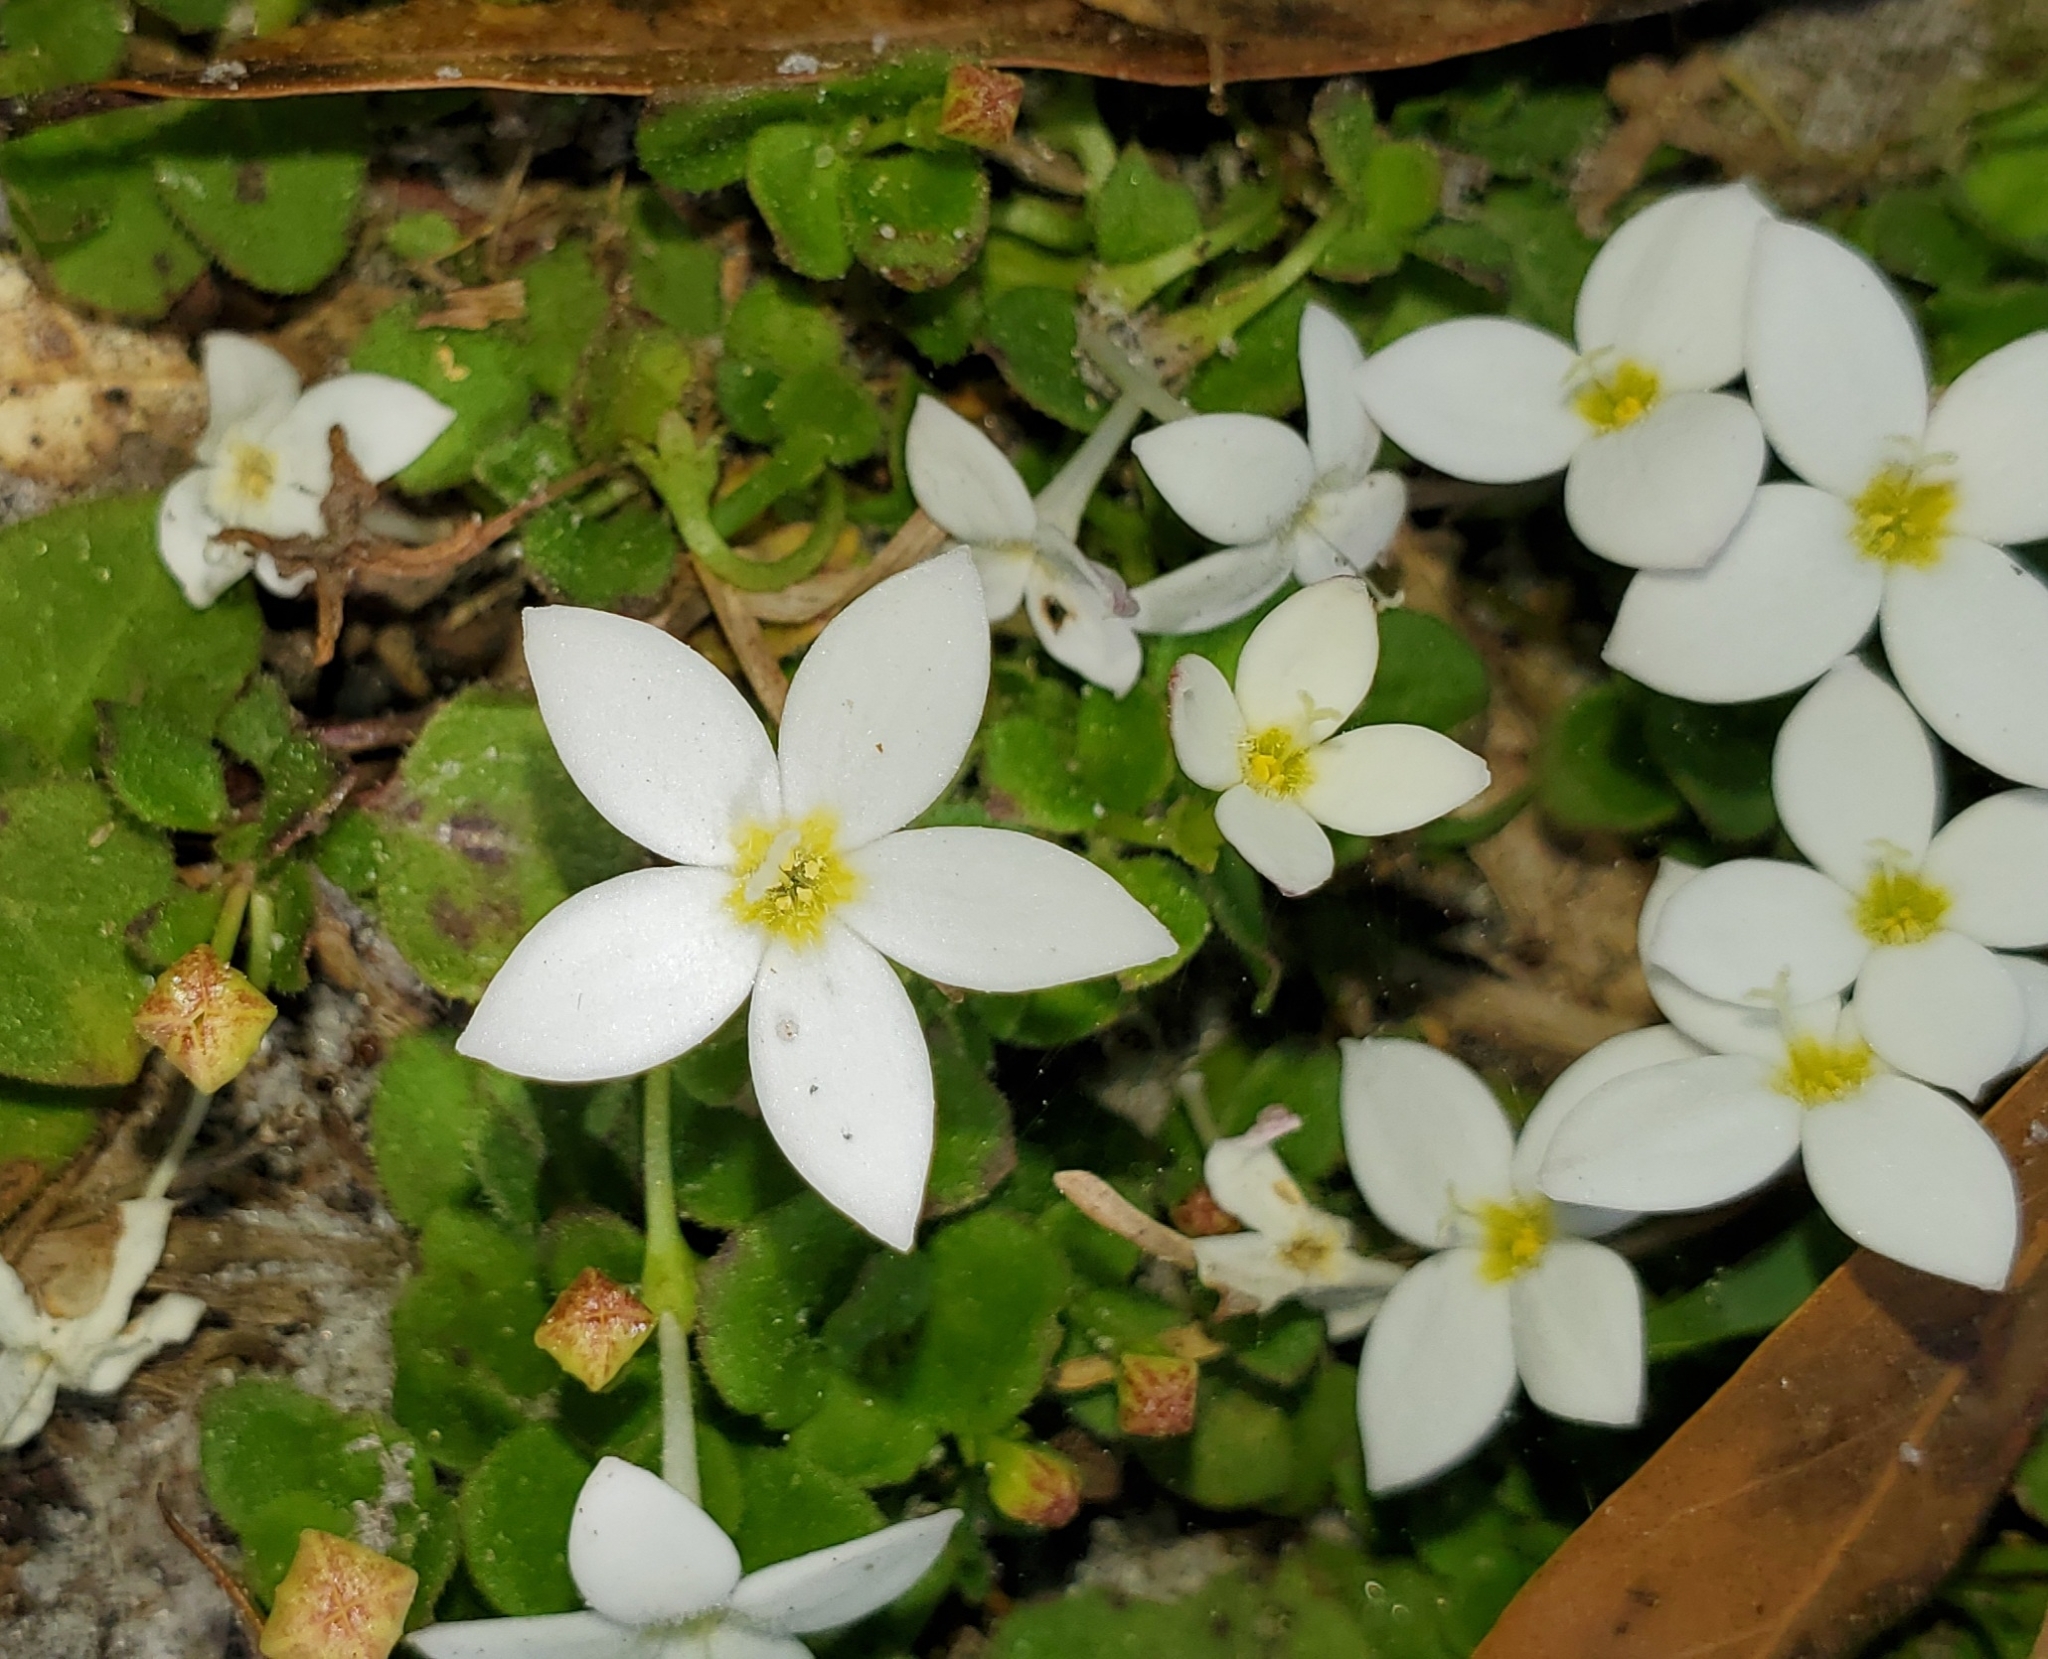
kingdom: Plantae
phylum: Tracheophyta
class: Magnoliopsida
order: Gentianales
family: Rubiaceae
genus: Houstonia
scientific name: Houstonia procumbens
